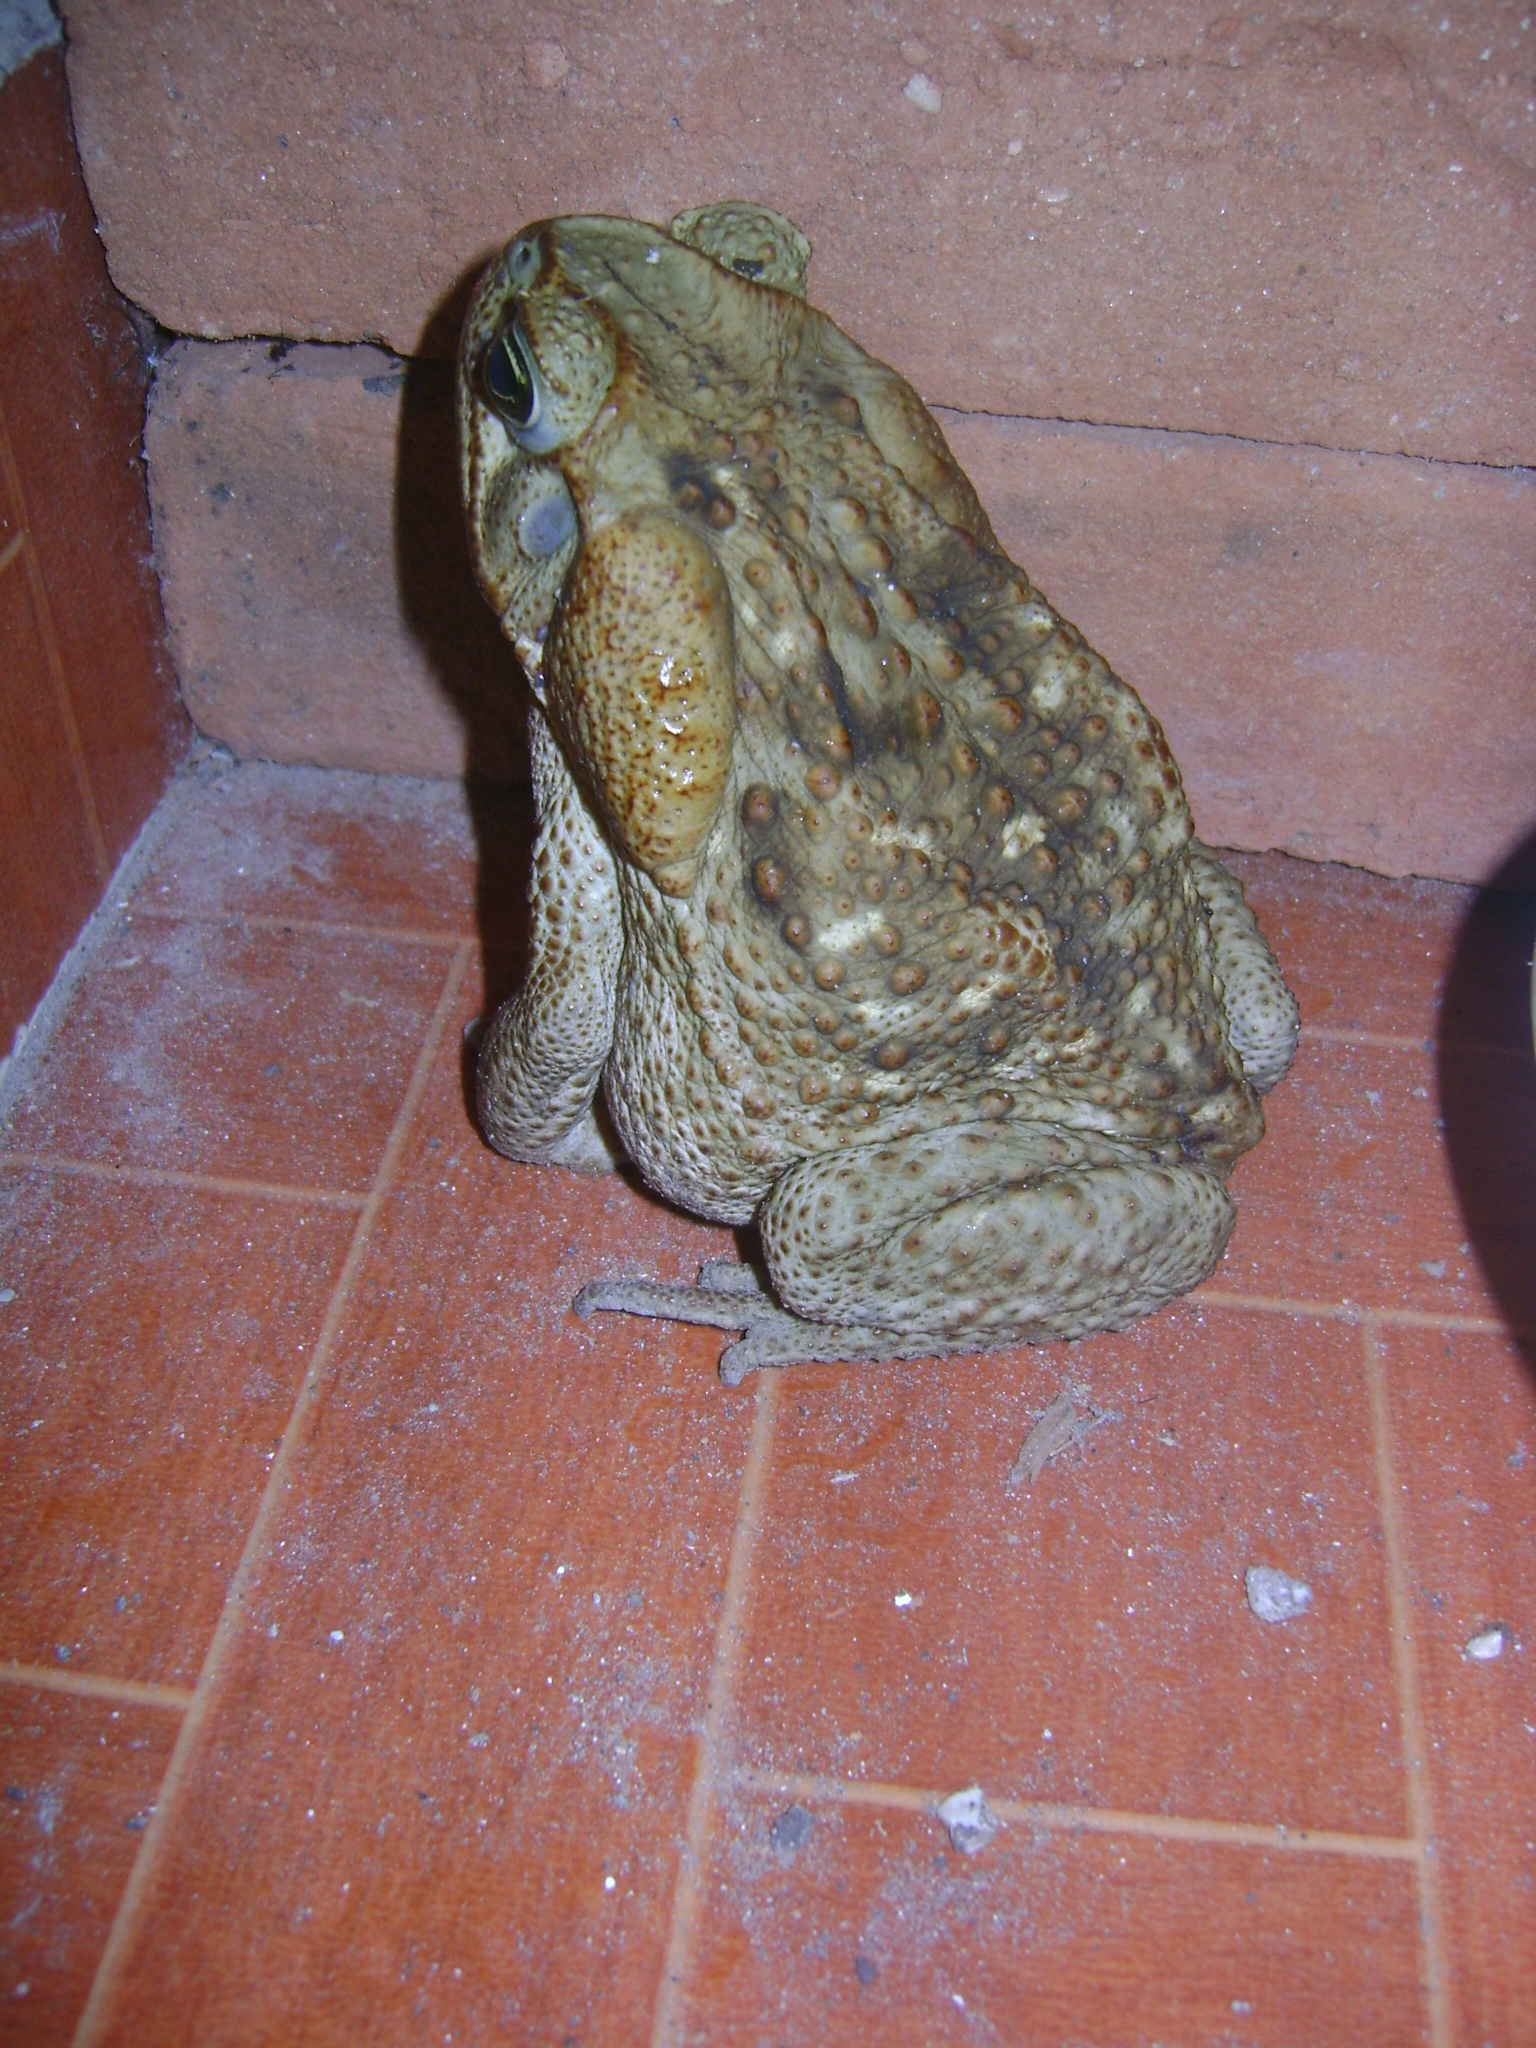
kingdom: Animalia
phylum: Chordata
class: Amphibia
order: Anura
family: Bufonidae
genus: Rhinella
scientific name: Rhinella horribilis
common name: Mesoamerican cane toad
